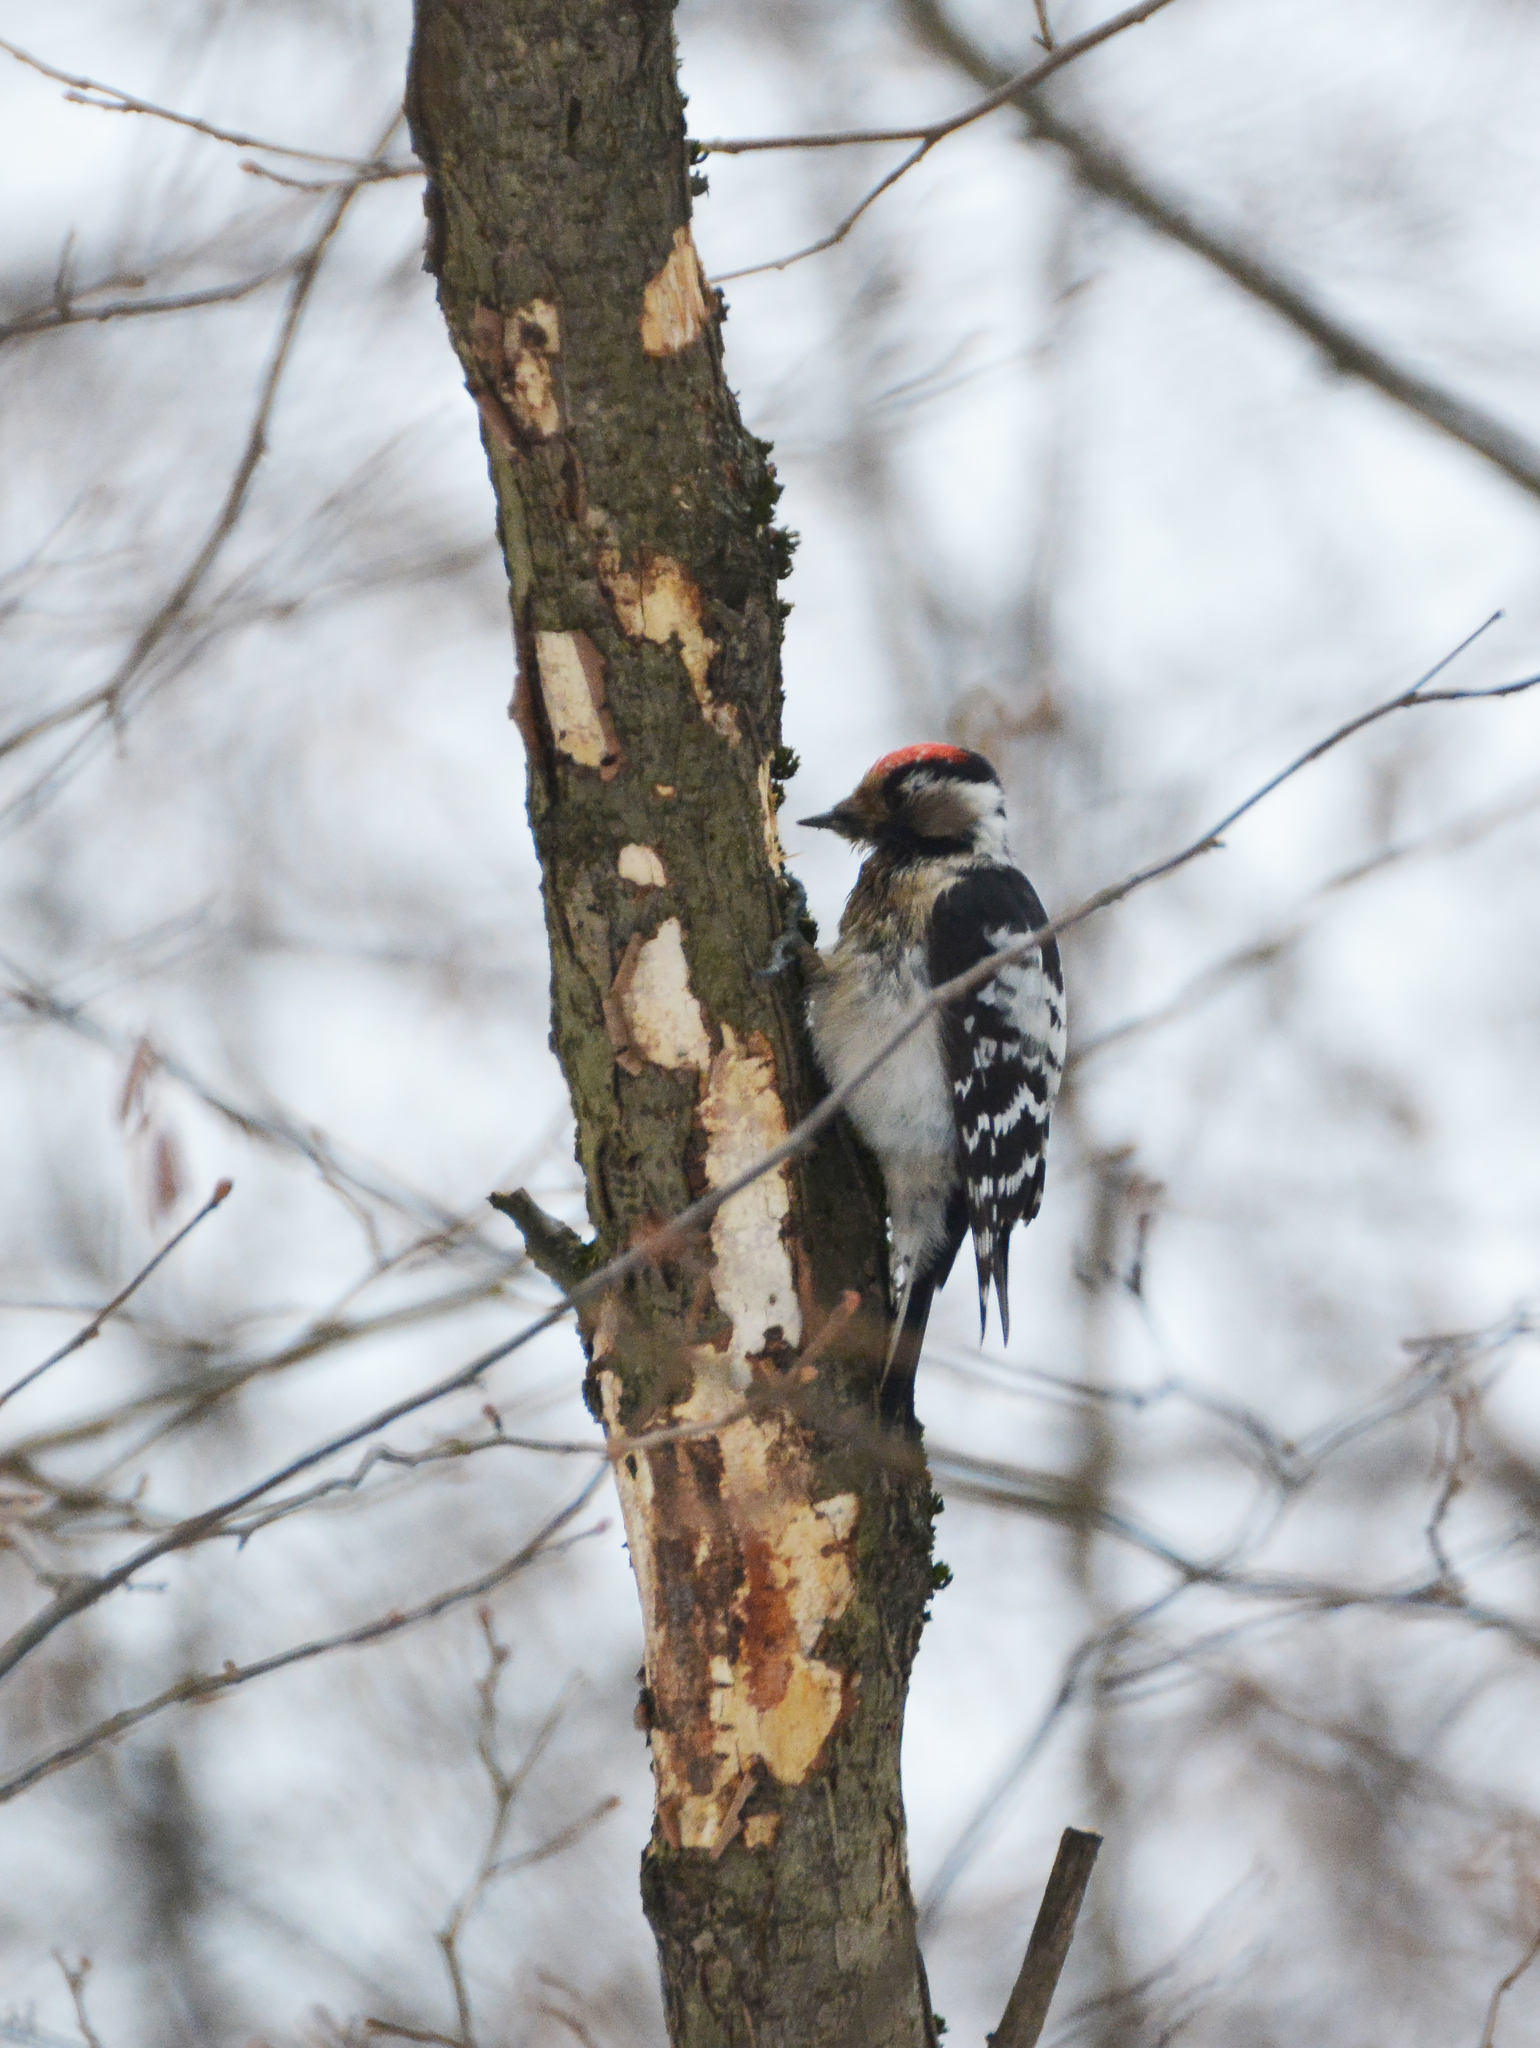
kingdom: Animalia
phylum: Chordata
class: Aves
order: Piciformes
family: Picidae
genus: Dryobates
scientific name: Dryobates minor
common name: Lesser spotted woodpecker
